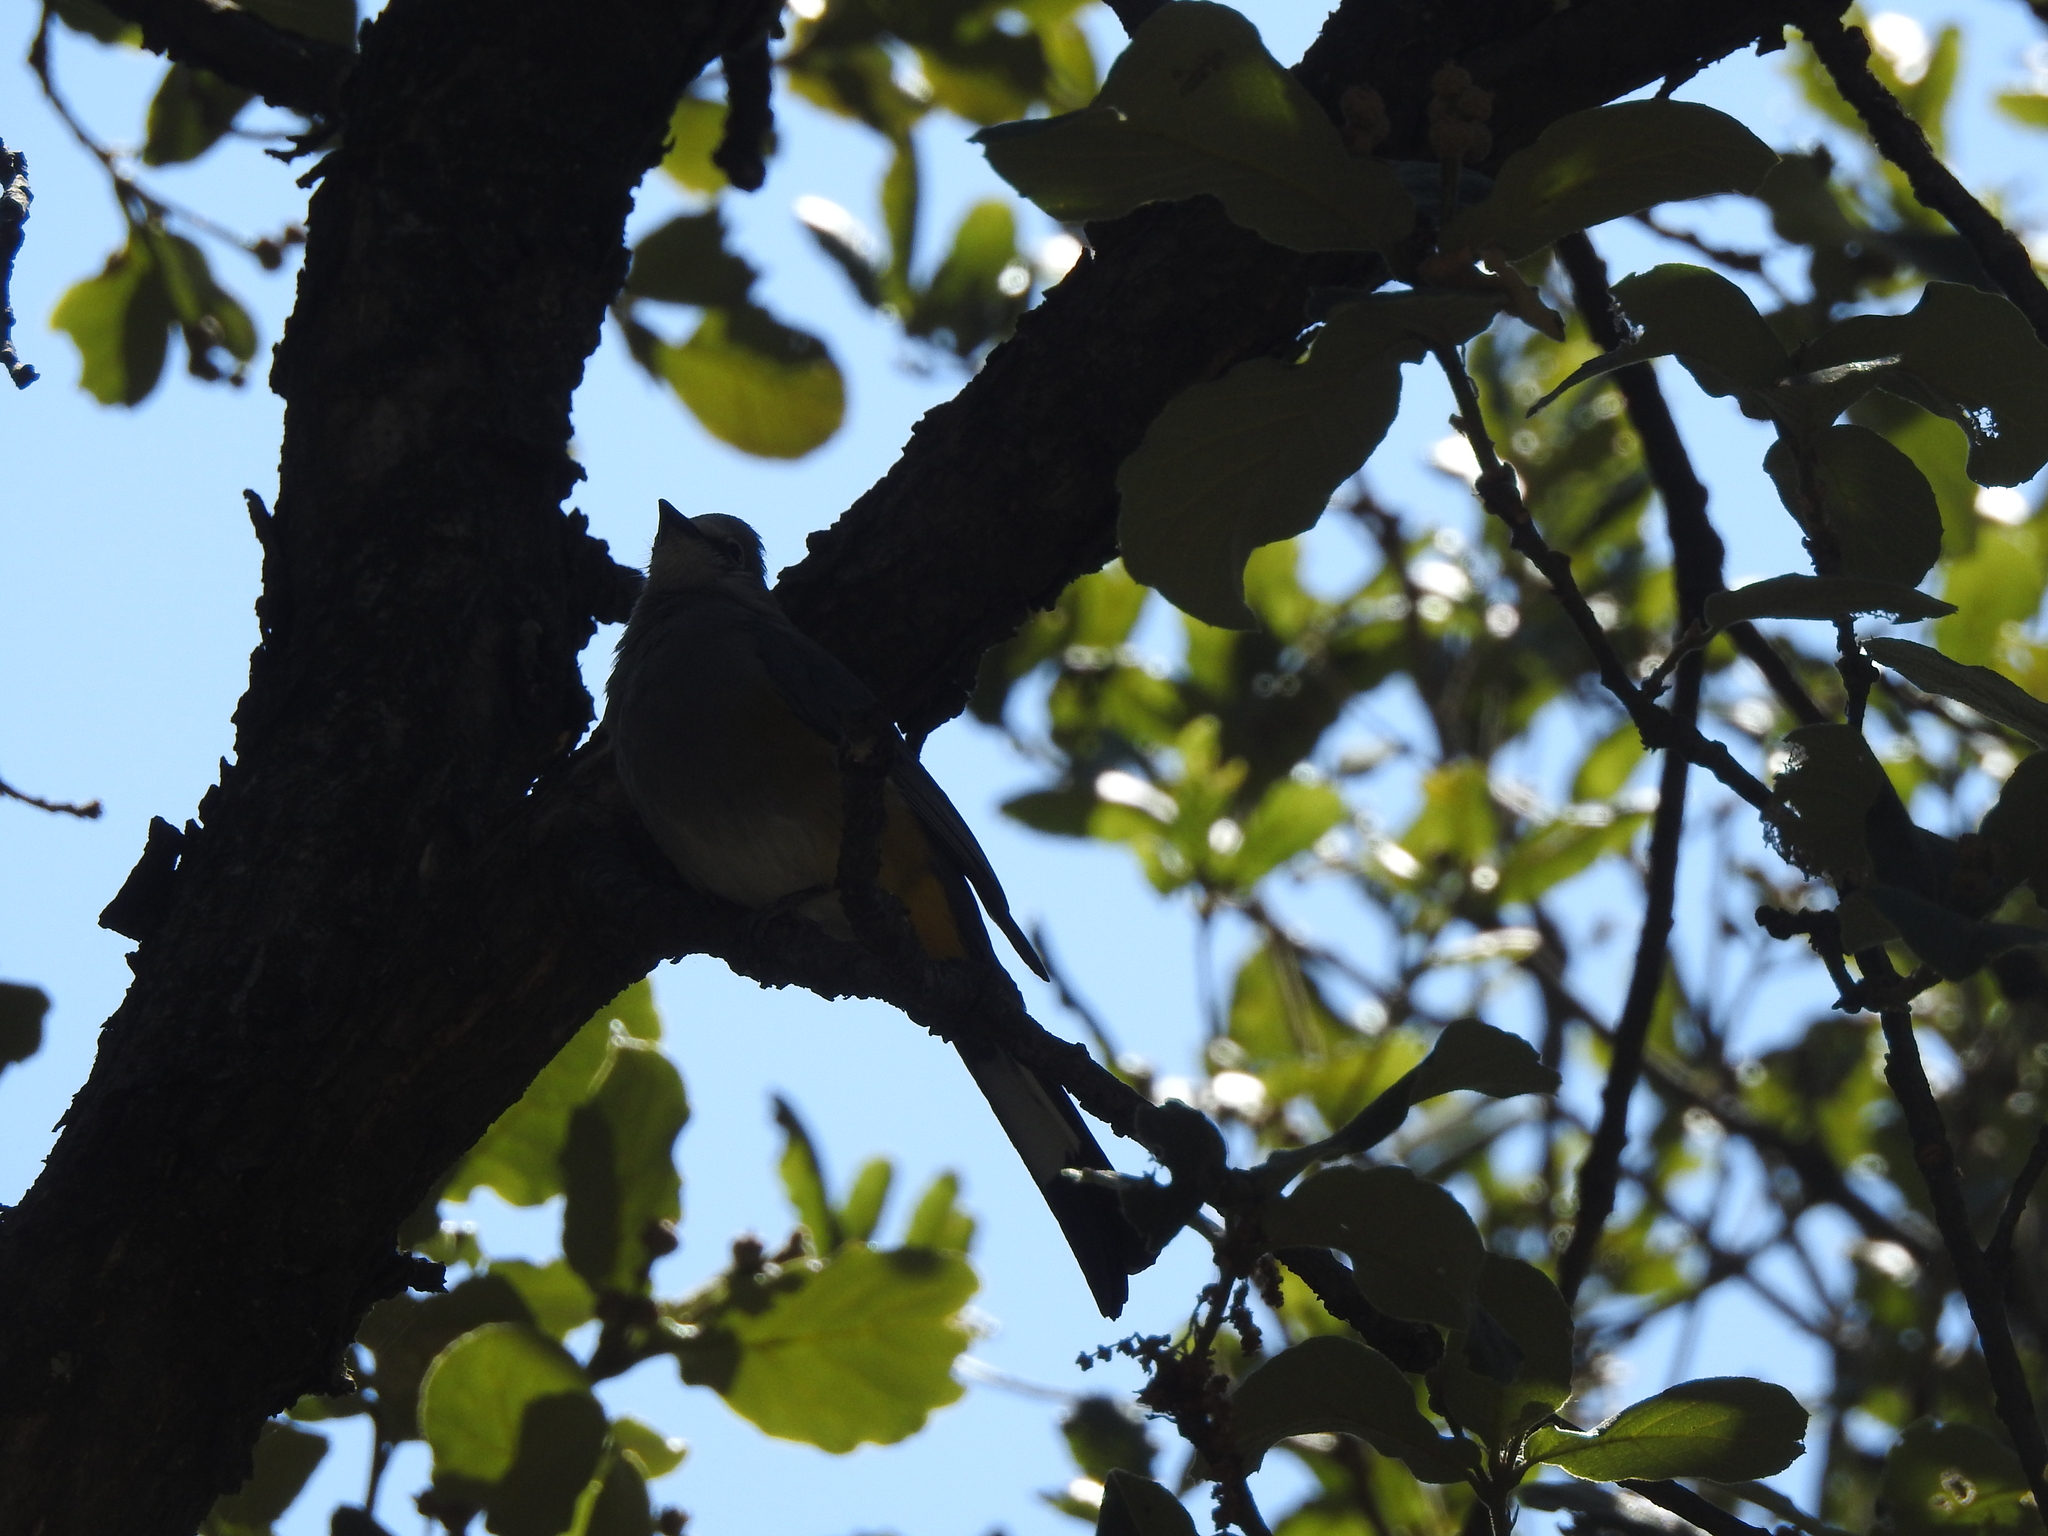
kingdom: Animalia
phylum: Chordata
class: Aves
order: Passeriformes
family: Ptilogonatidae
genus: Ptilogonys
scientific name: Ptilogonys cinereus
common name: Gray silky-flycatcher
